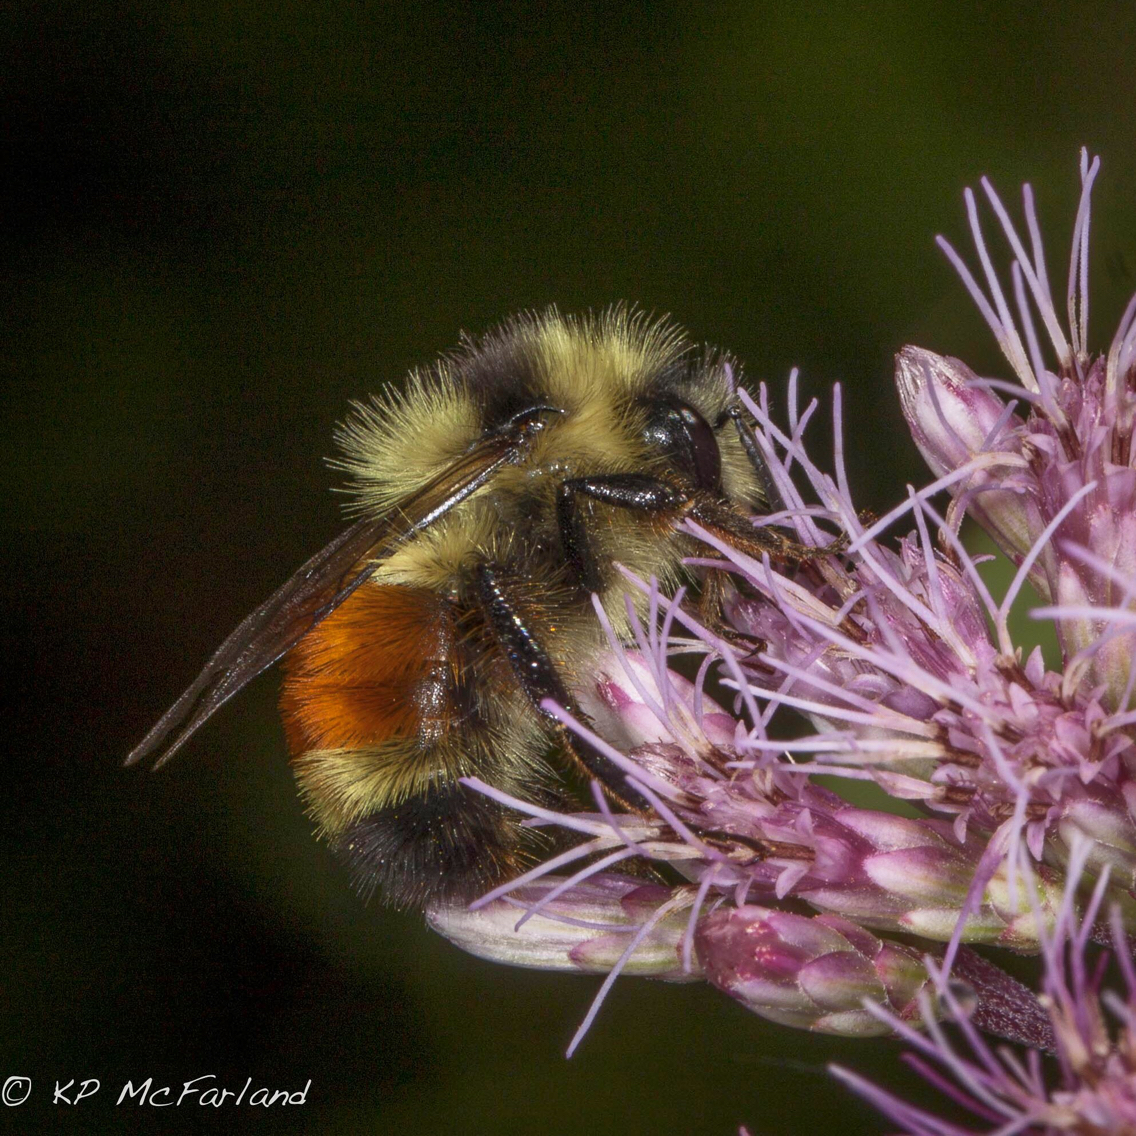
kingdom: Animalia
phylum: Arthropoda
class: Insecta
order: Hymenoptera
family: Apidae
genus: Bombus
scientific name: Bombus ternarius
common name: Tri-colored bumble bee
